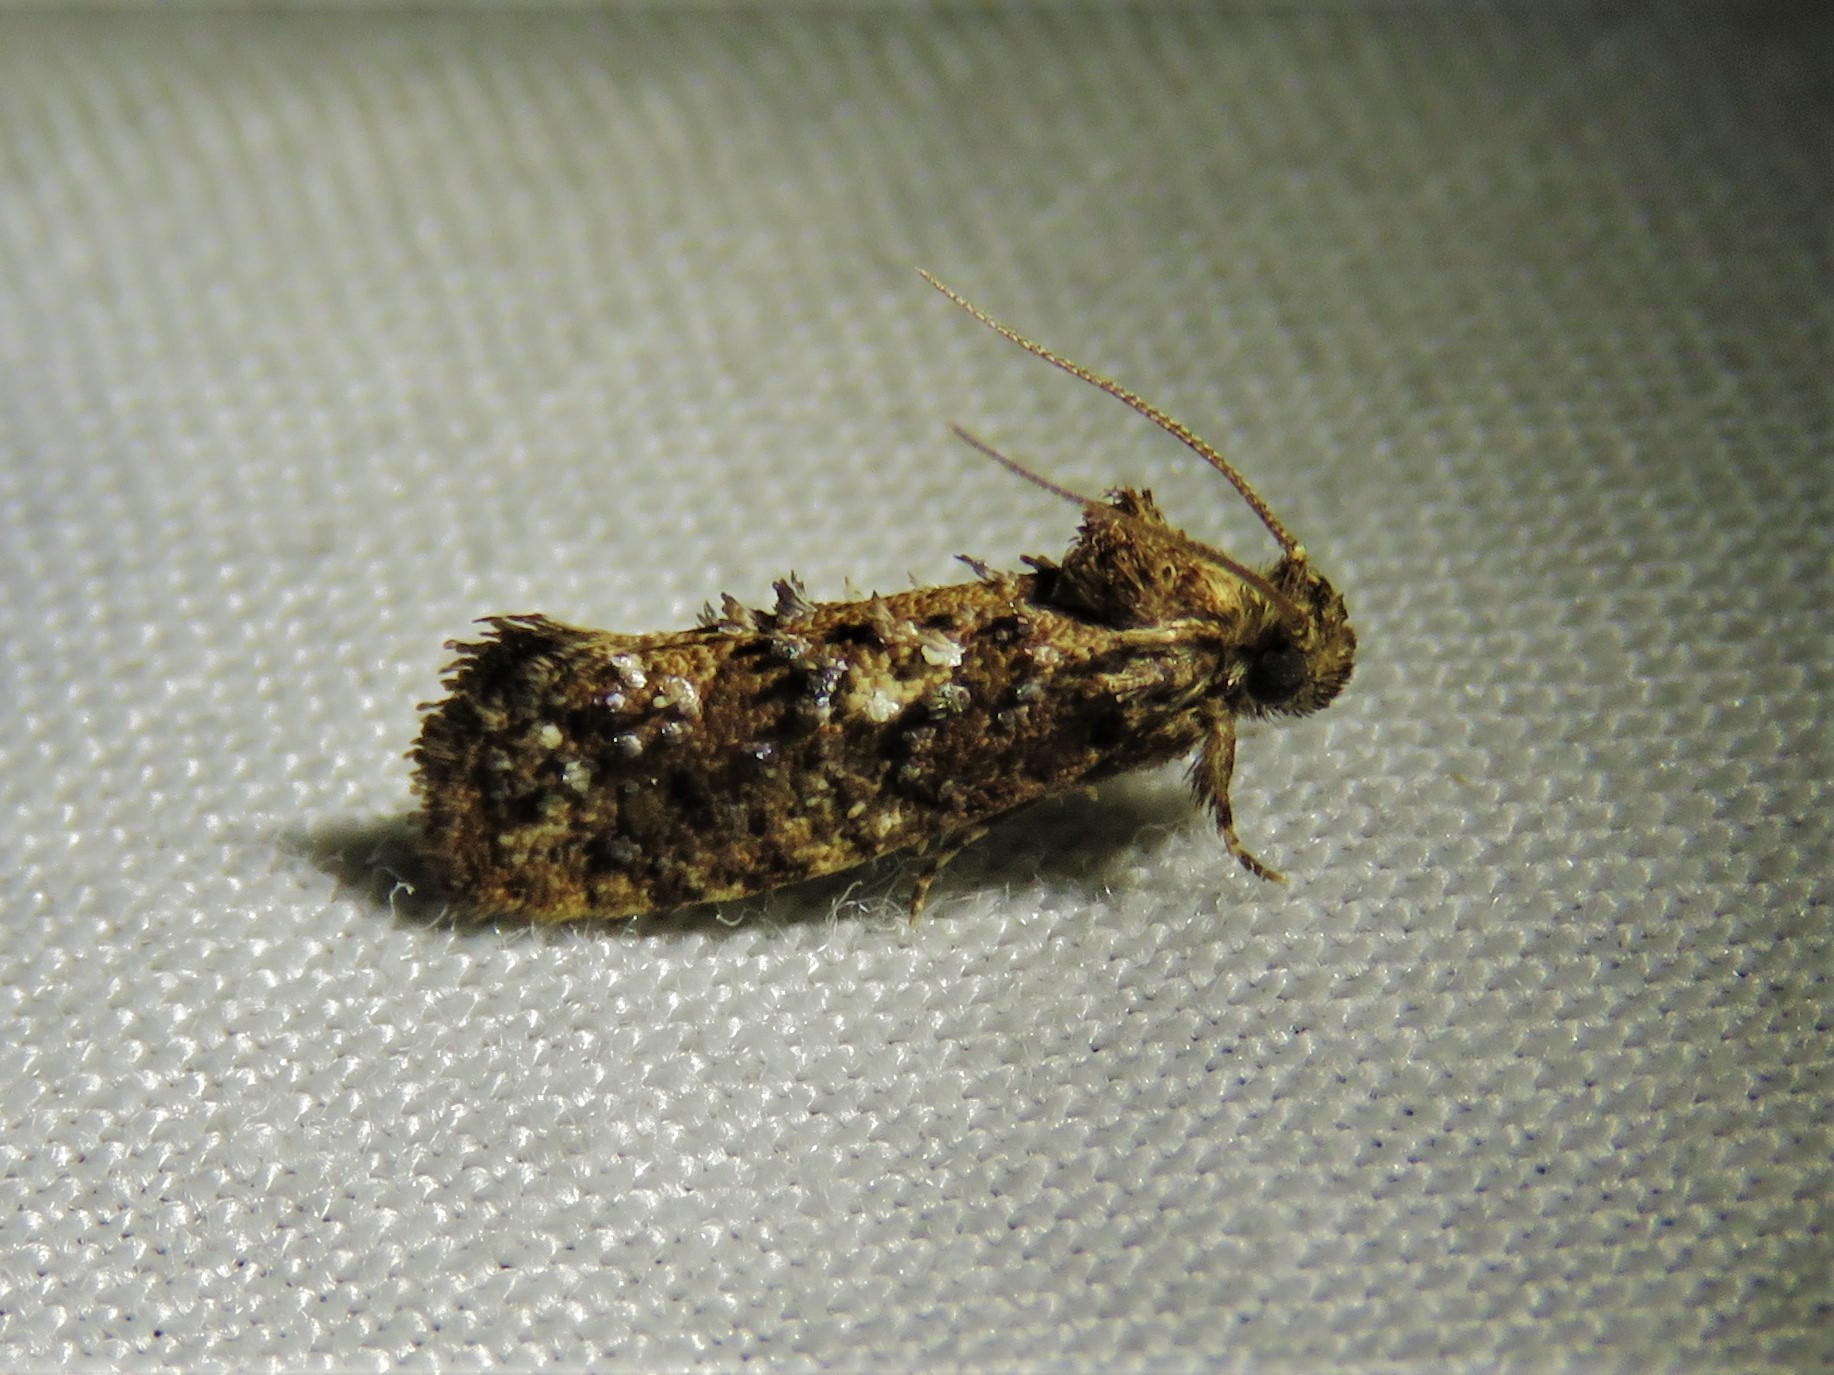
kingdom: Animalia
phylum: Arthropoda
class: Insecta
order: Lepidoptera
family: Tineidae
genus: Acrolophus
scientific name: Acrolophus cressoni
